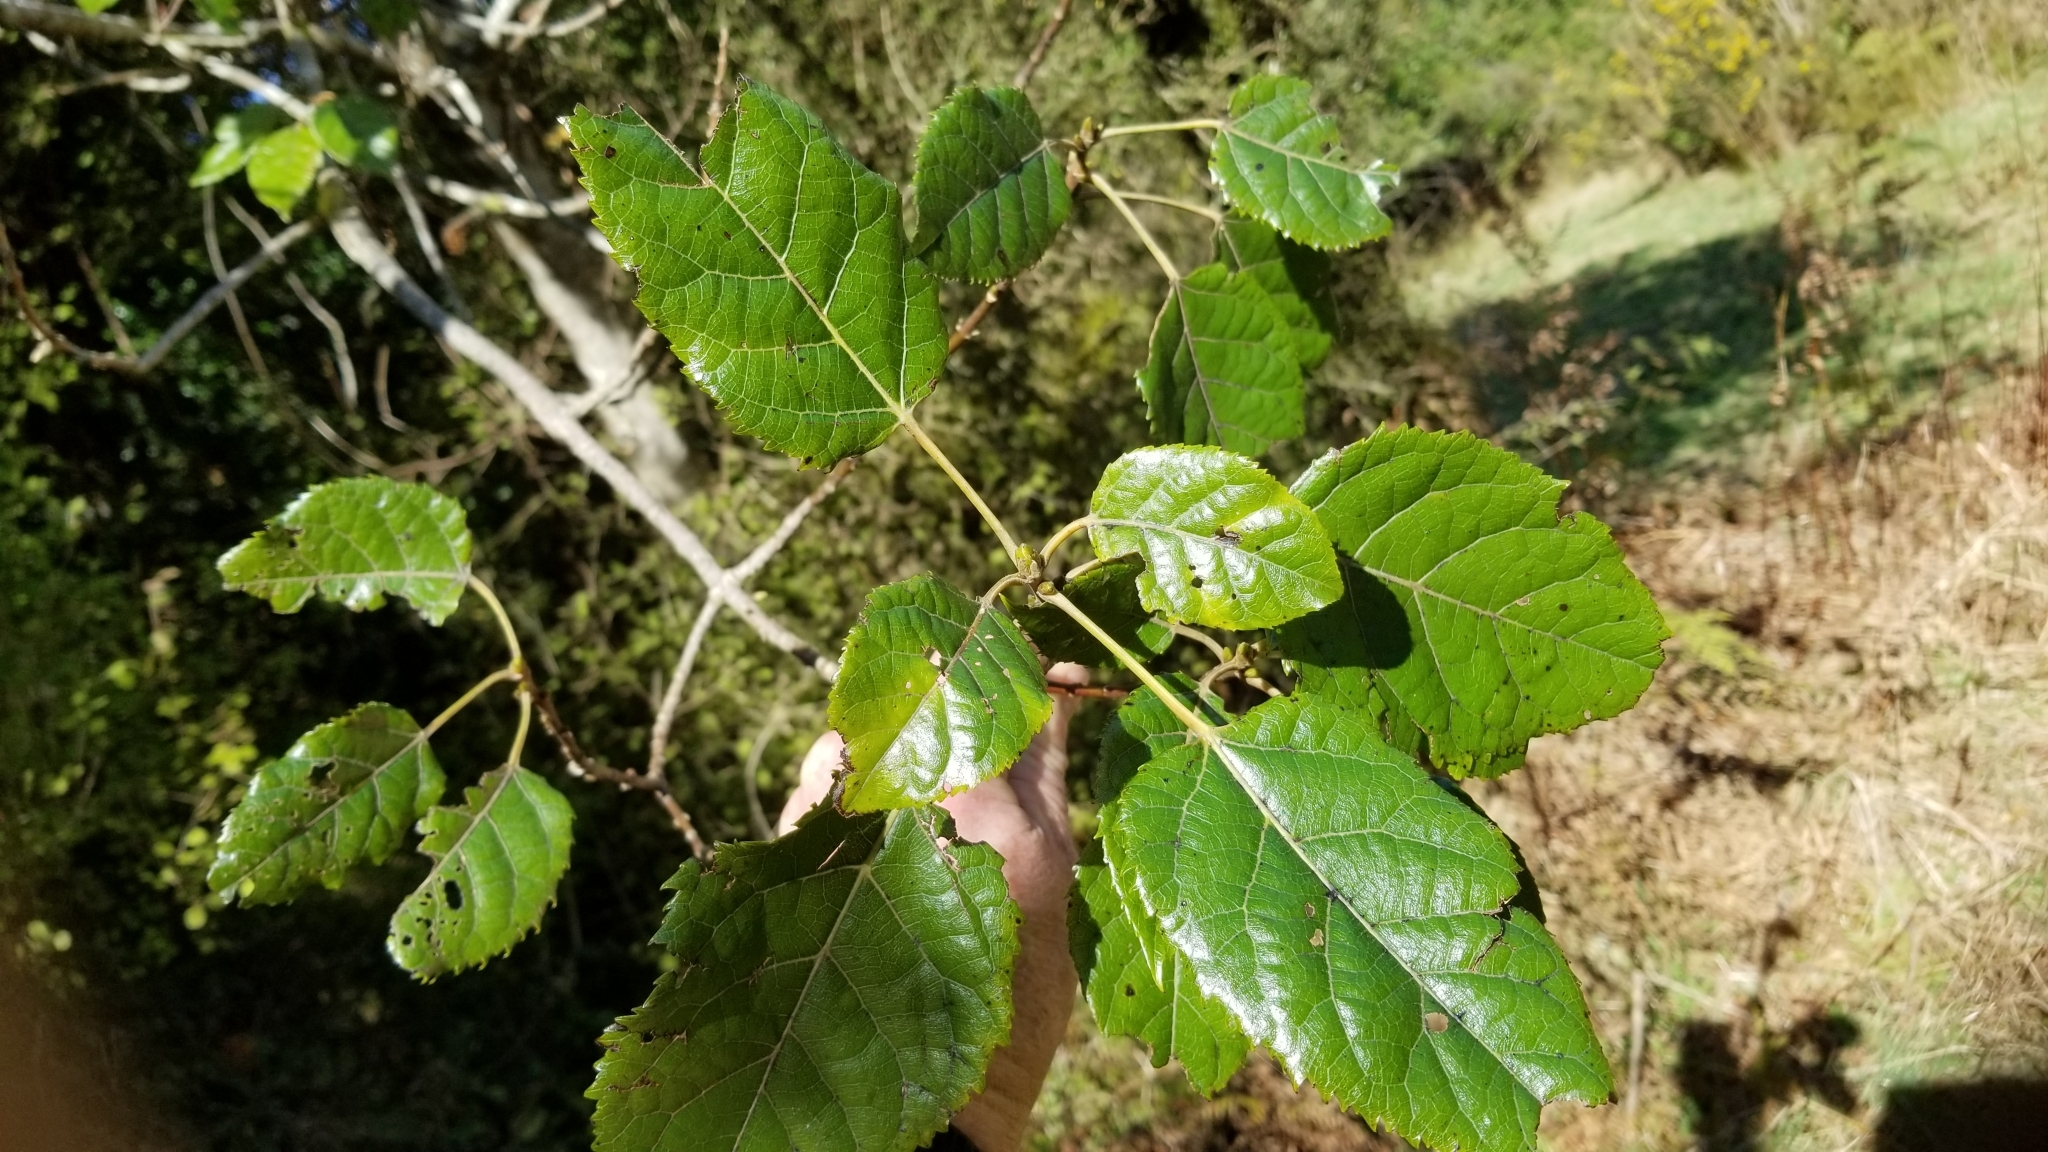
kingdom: Plantae
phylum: Tracheophyta
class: Magnoliopsida
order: Oxalidales
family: Elaeocarpaceae
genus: Aristotelia
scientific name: Aristotelia serrata
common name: New zealand wineberry
